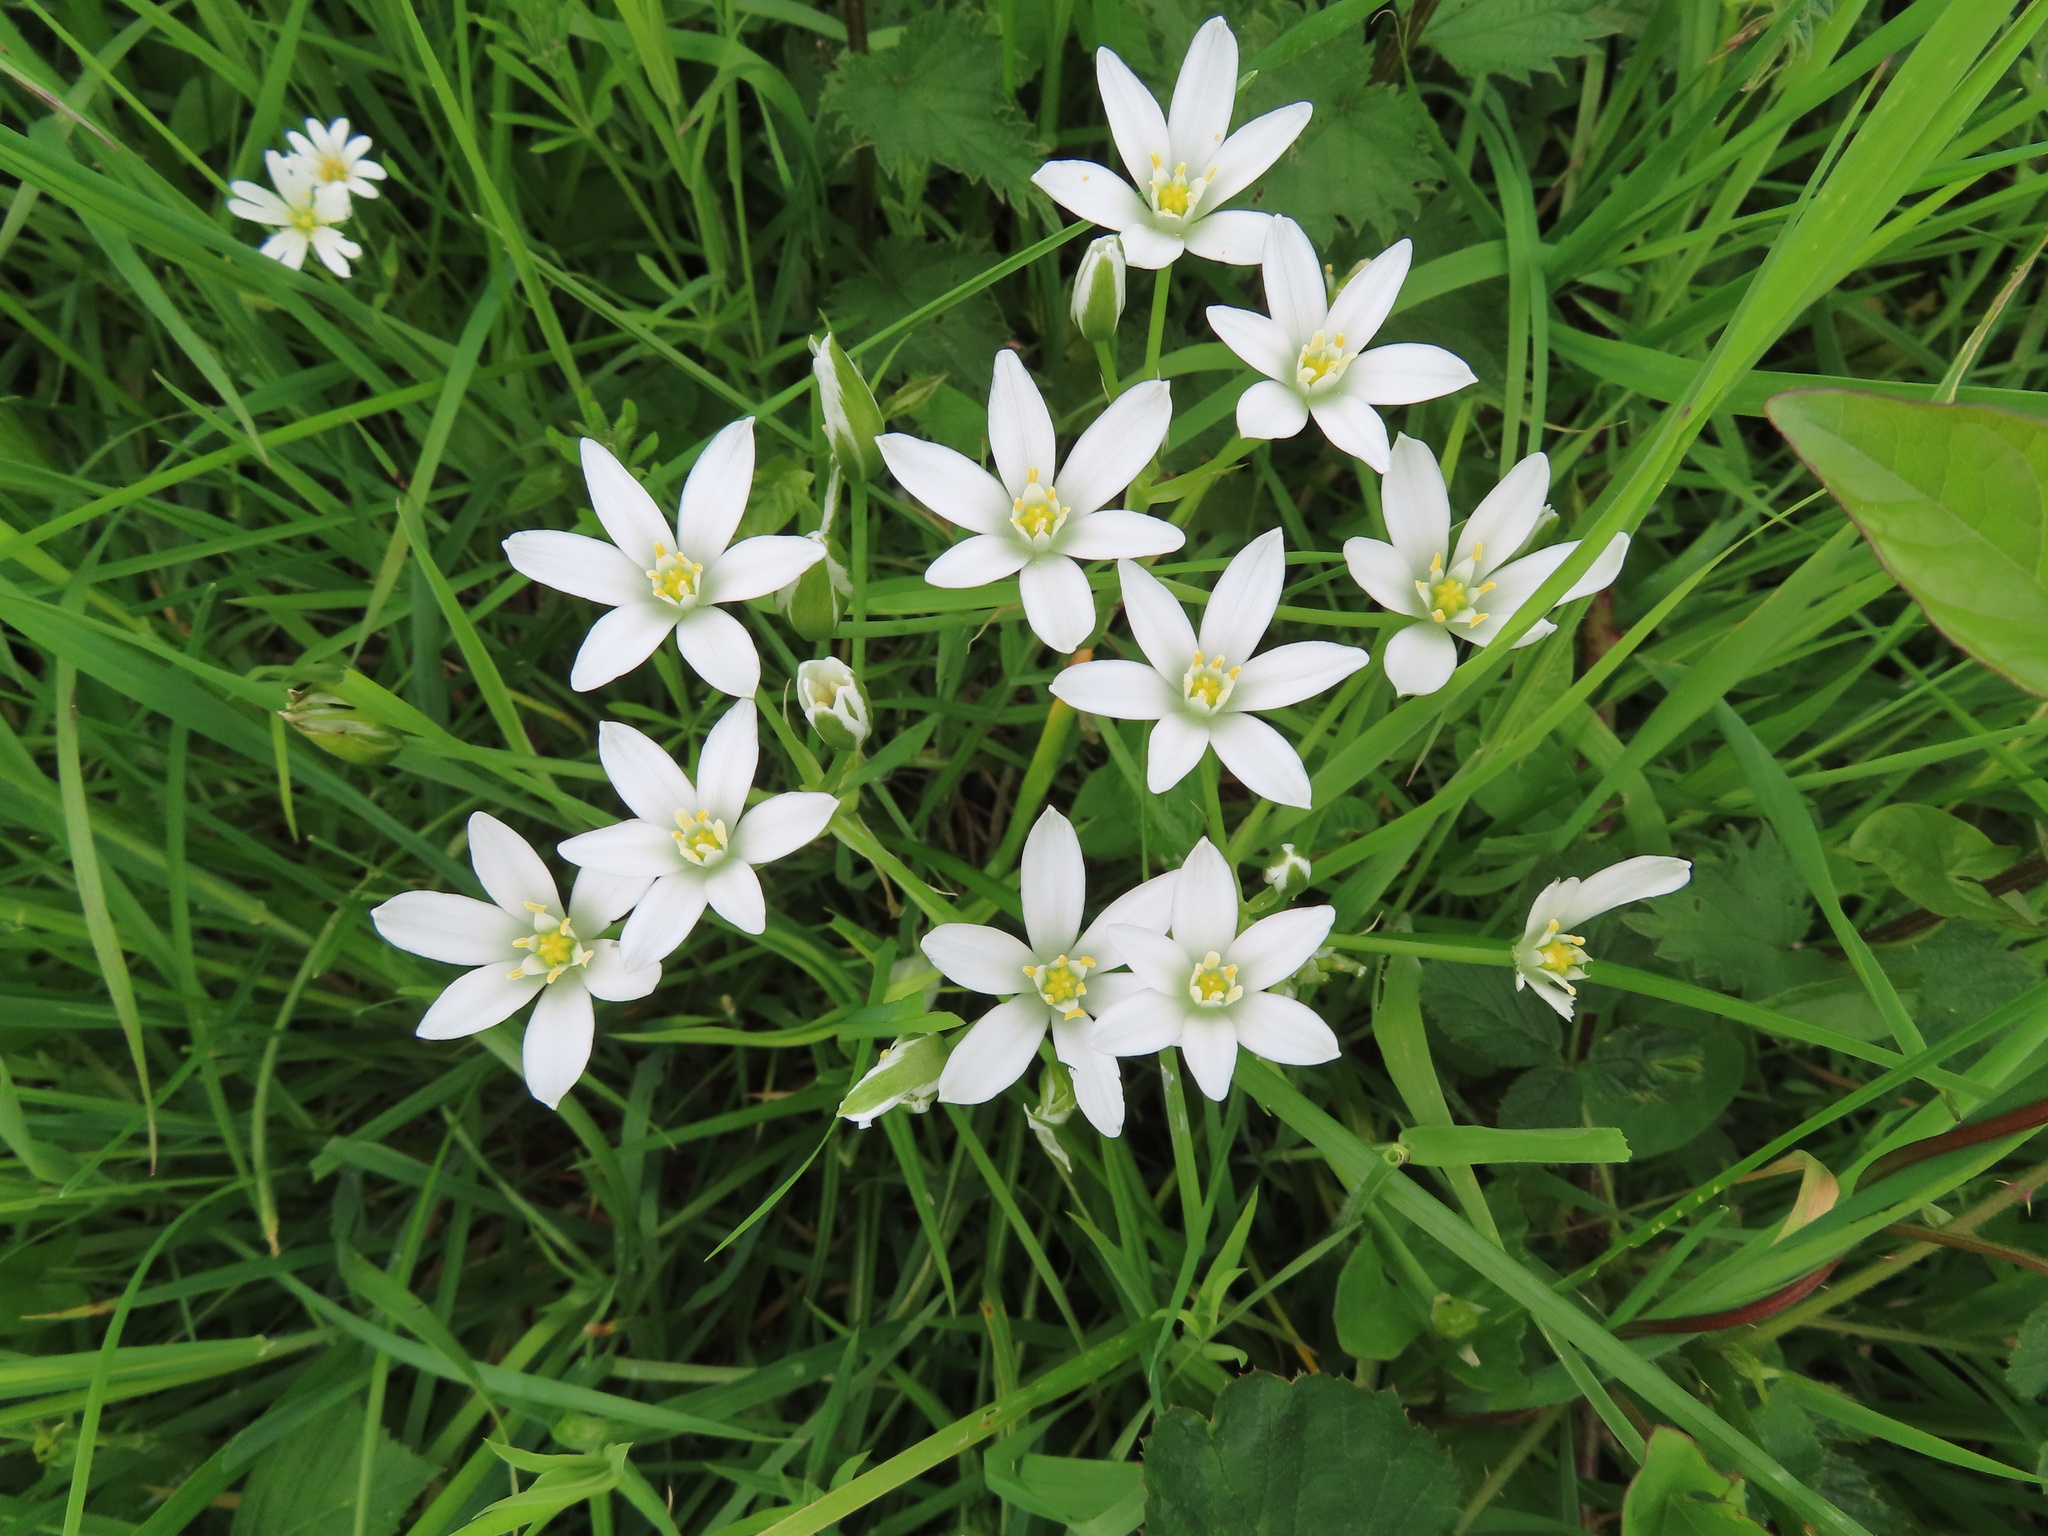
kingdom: Plantae
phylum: Tracheophyta
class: Liliopsida
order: Asparagales
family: Asparagaceae
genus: Ornithogalum
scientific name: Ornithogalum umbellatum
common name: Garden star-of-bethlehem
